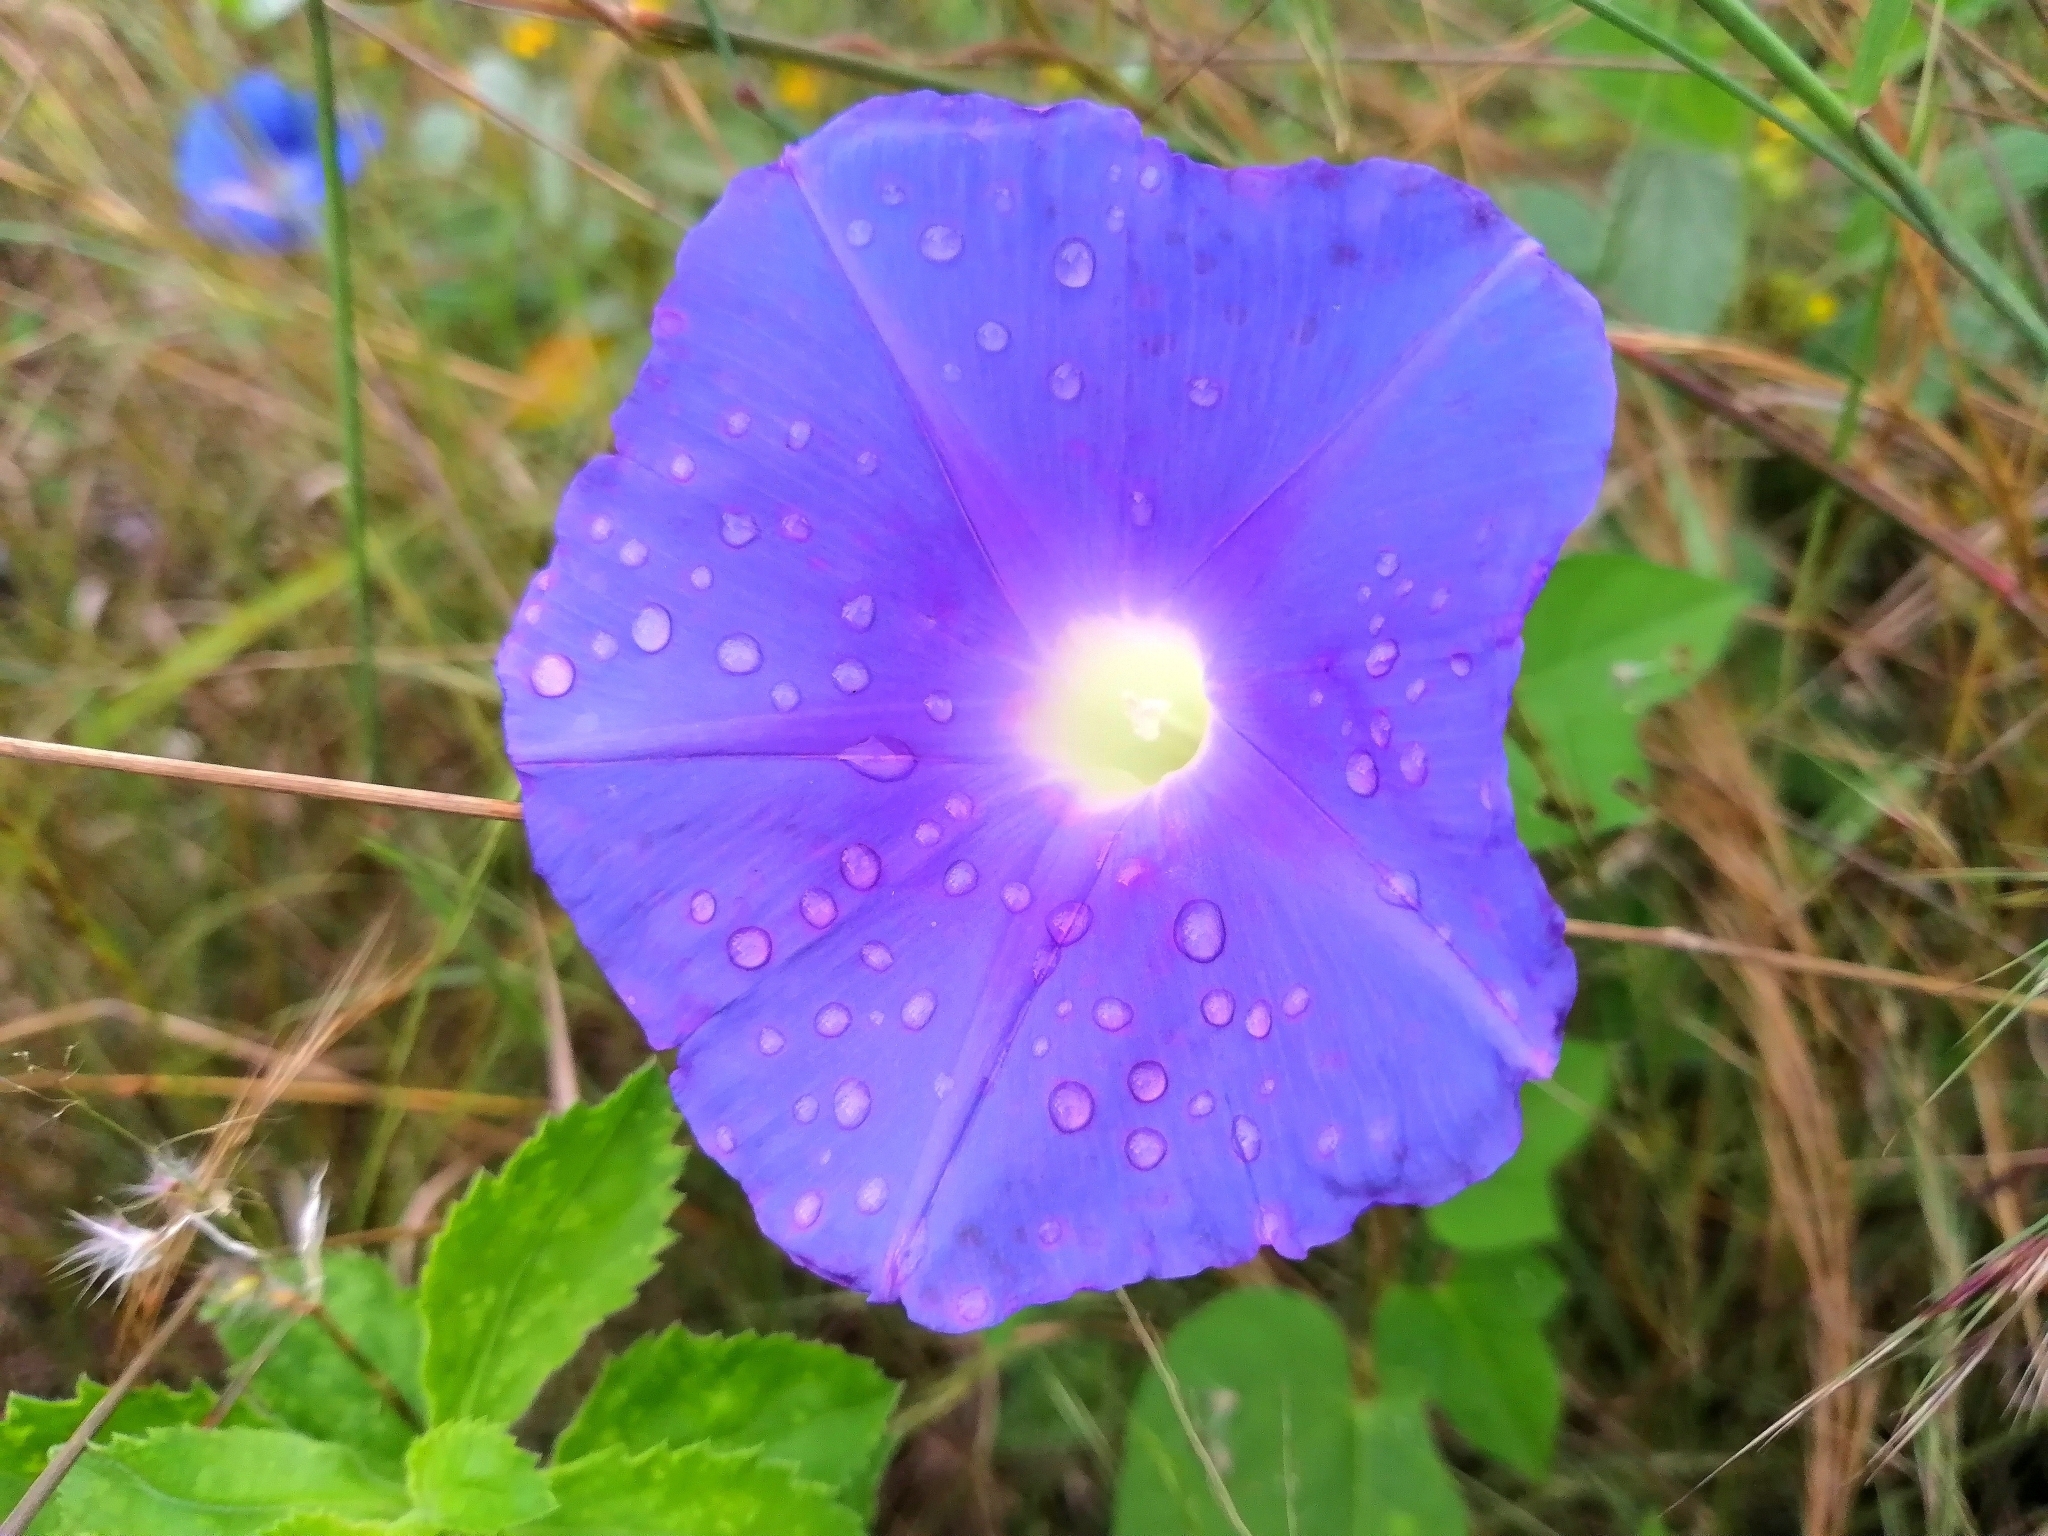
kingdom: Plantae
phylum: Tracheophyta
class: Magnoliopsida
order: Solanales
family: Convolvulaceae
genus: Ipomoea
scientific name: Ipomoea nil
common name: Japanese morning-glory
